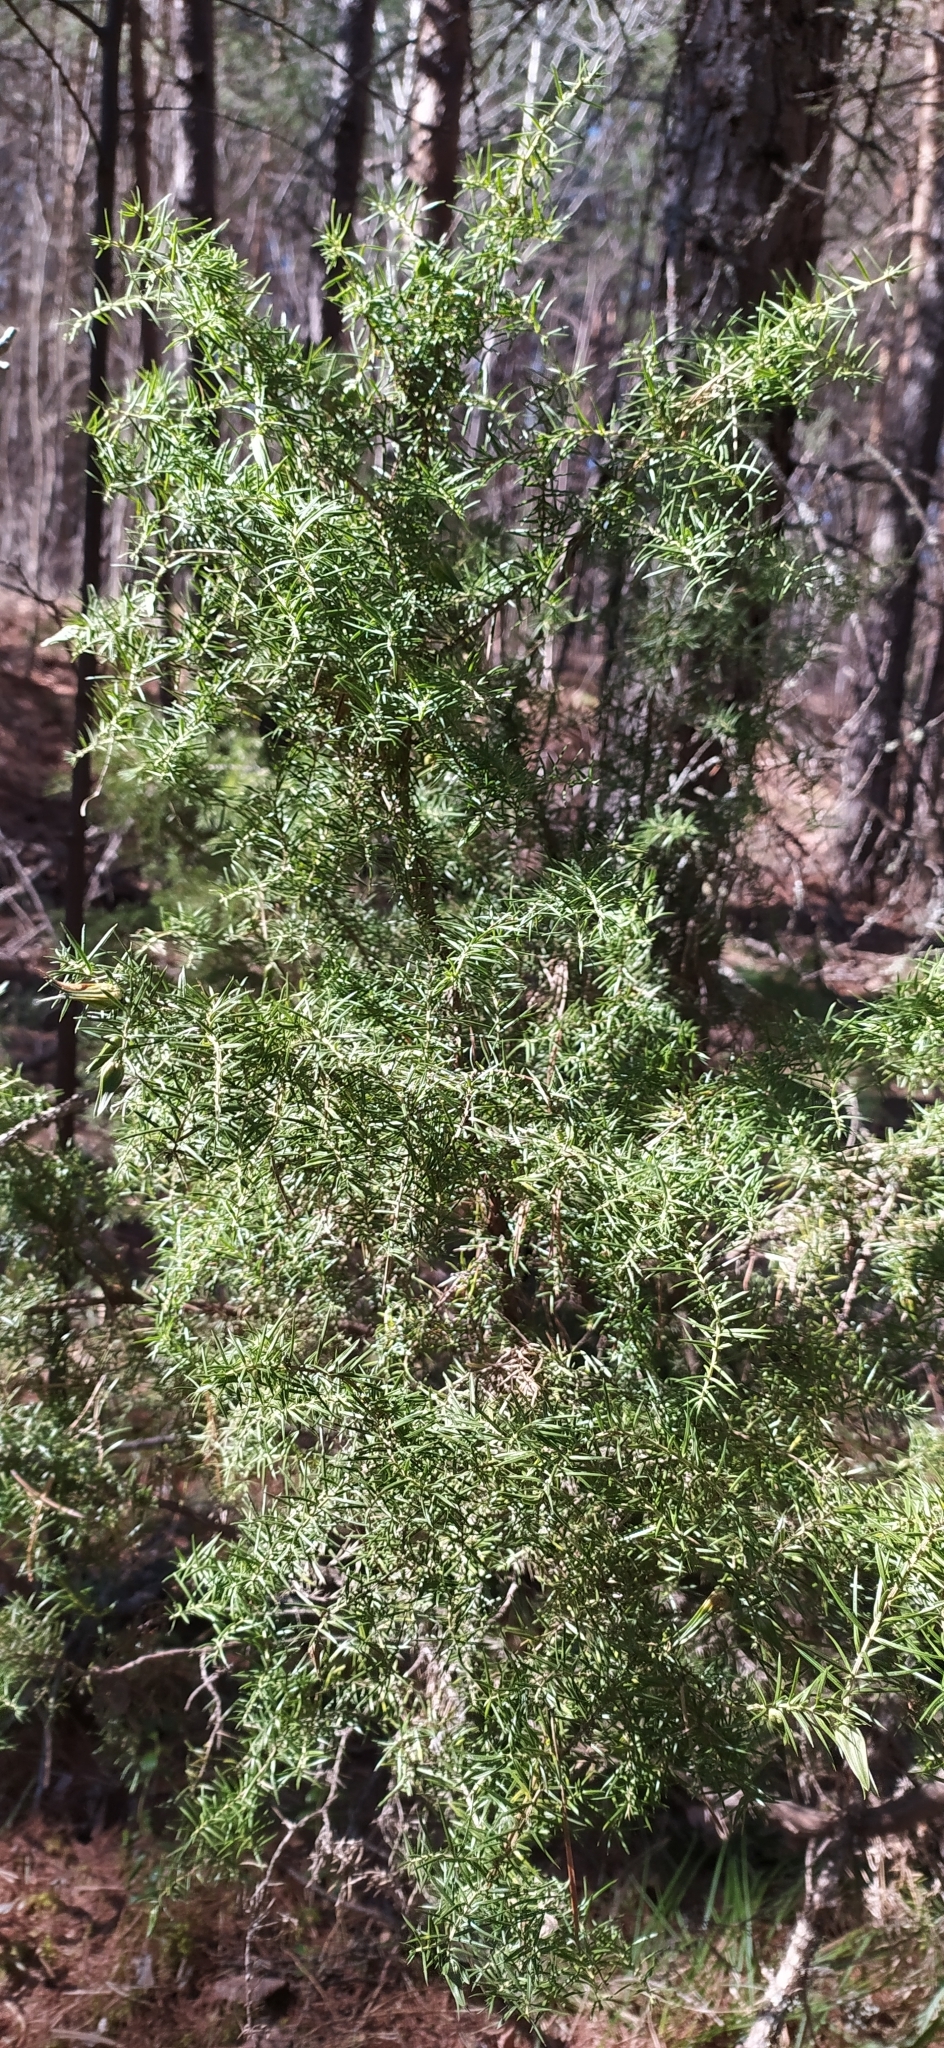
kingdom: Plantae
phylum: Tracheophyta
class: Pinopsida
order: Pinales
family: Cupressaceae
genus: Juniperus
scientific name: Juniperus communis
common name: Common juniper
